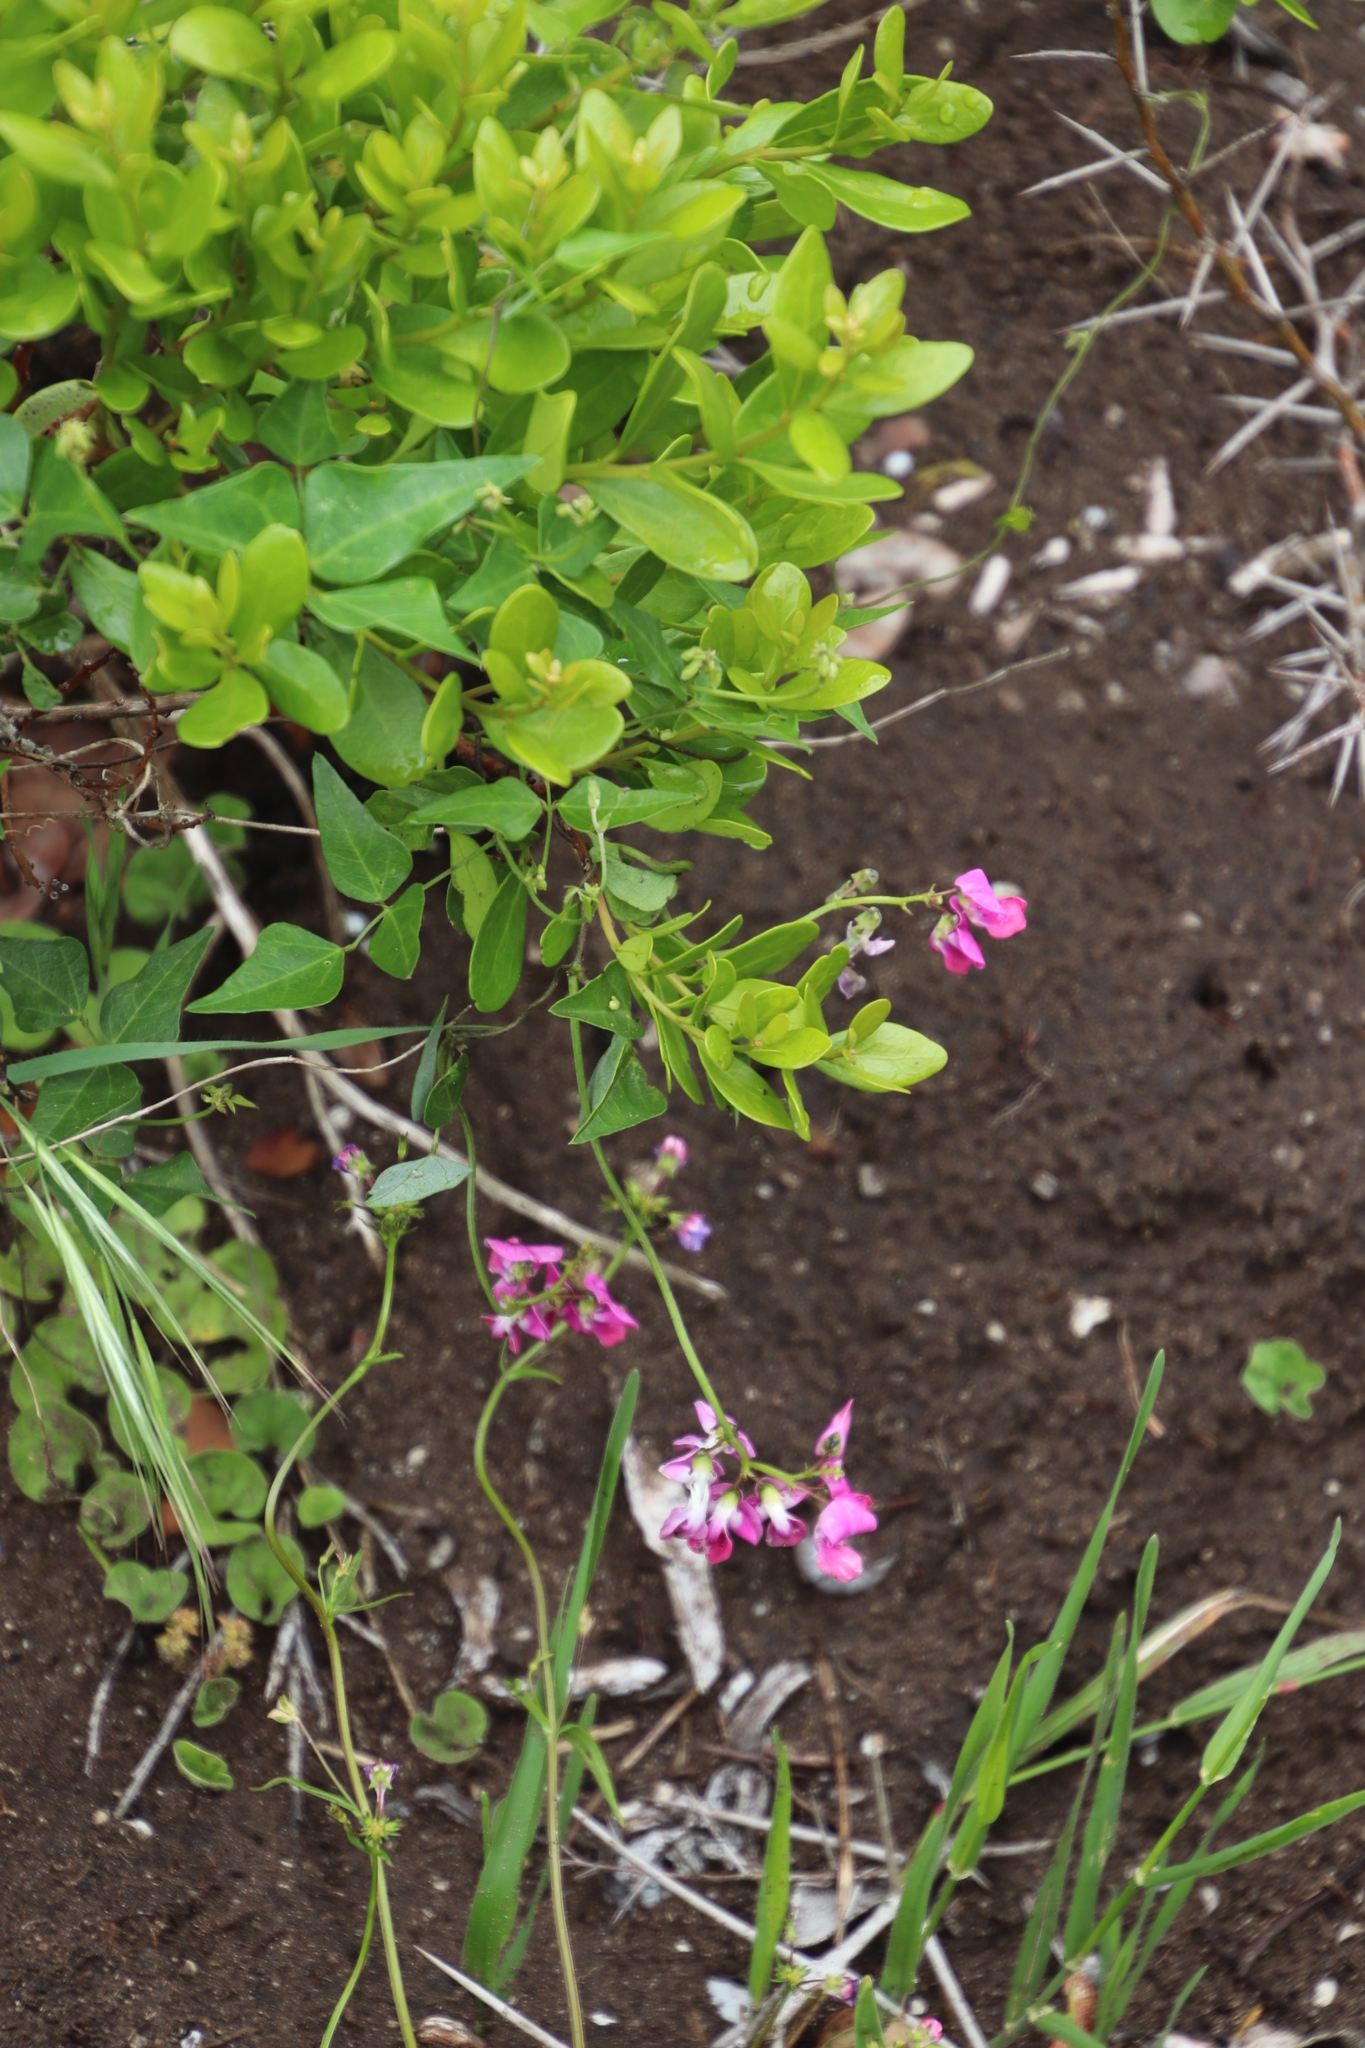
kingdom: Plantae
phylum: Tracheophyta
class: Magnoliopsida
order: Fabales
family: Fabaceae
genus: Dipogon
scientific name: Dipogon lignosus
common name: Okie bean
